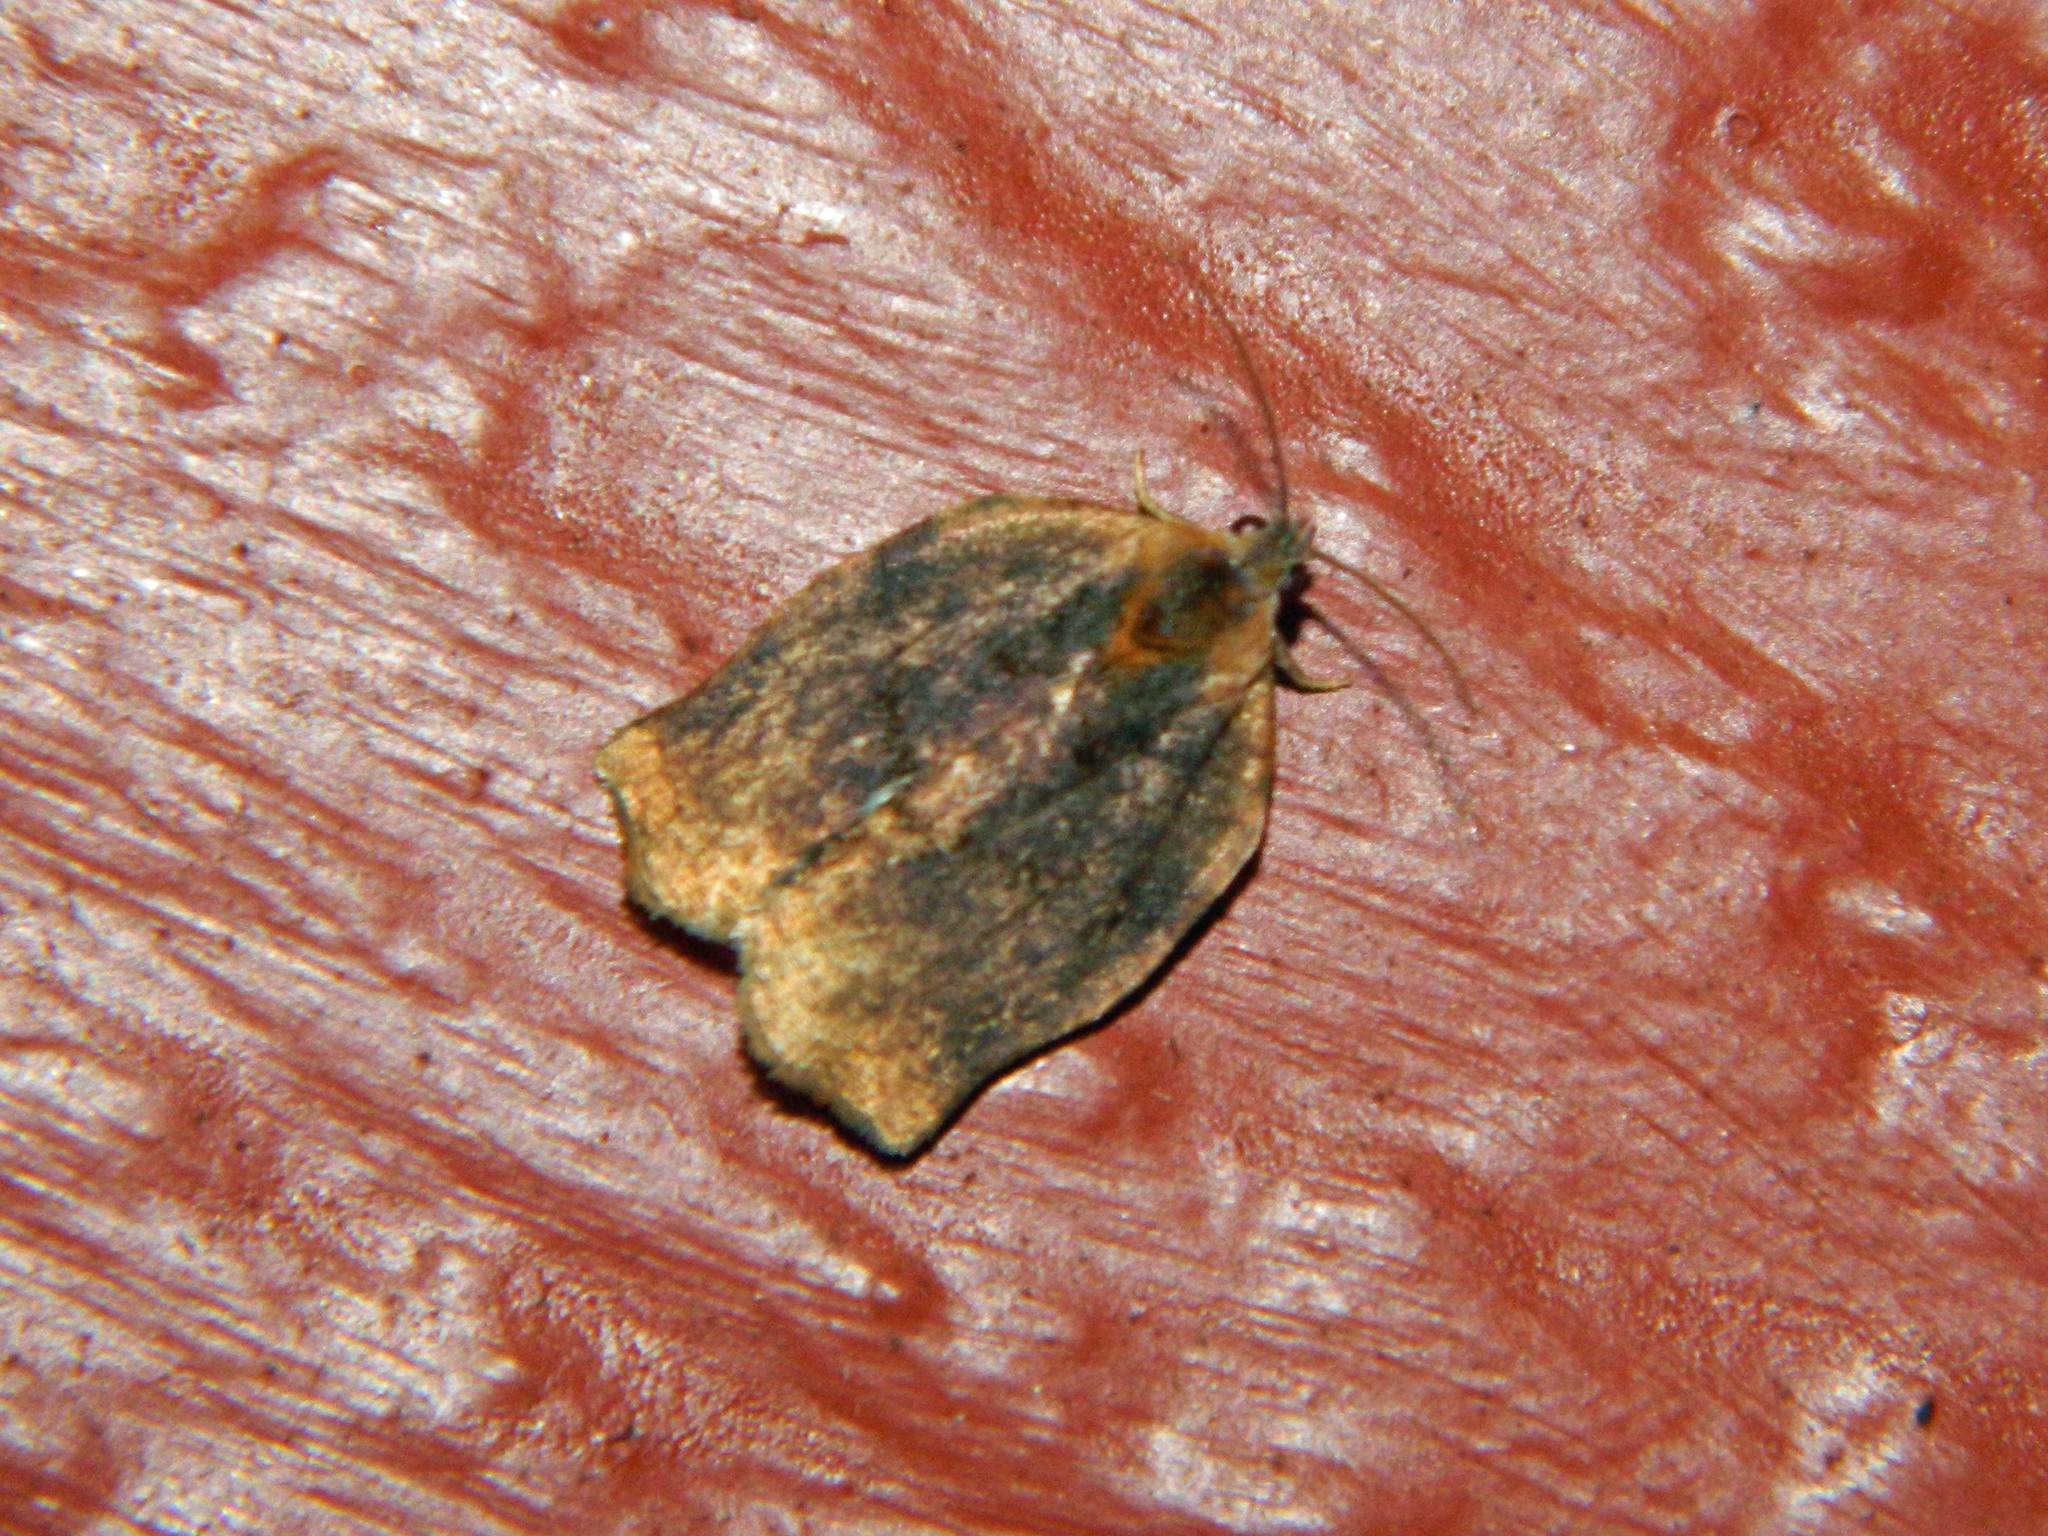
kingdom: Animalia
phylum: Arthropoda
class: Insecta
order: Lepidoptera
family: Tortricidae
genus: Archips
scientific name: Archips purpurana
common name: Omnivorous leafroller
